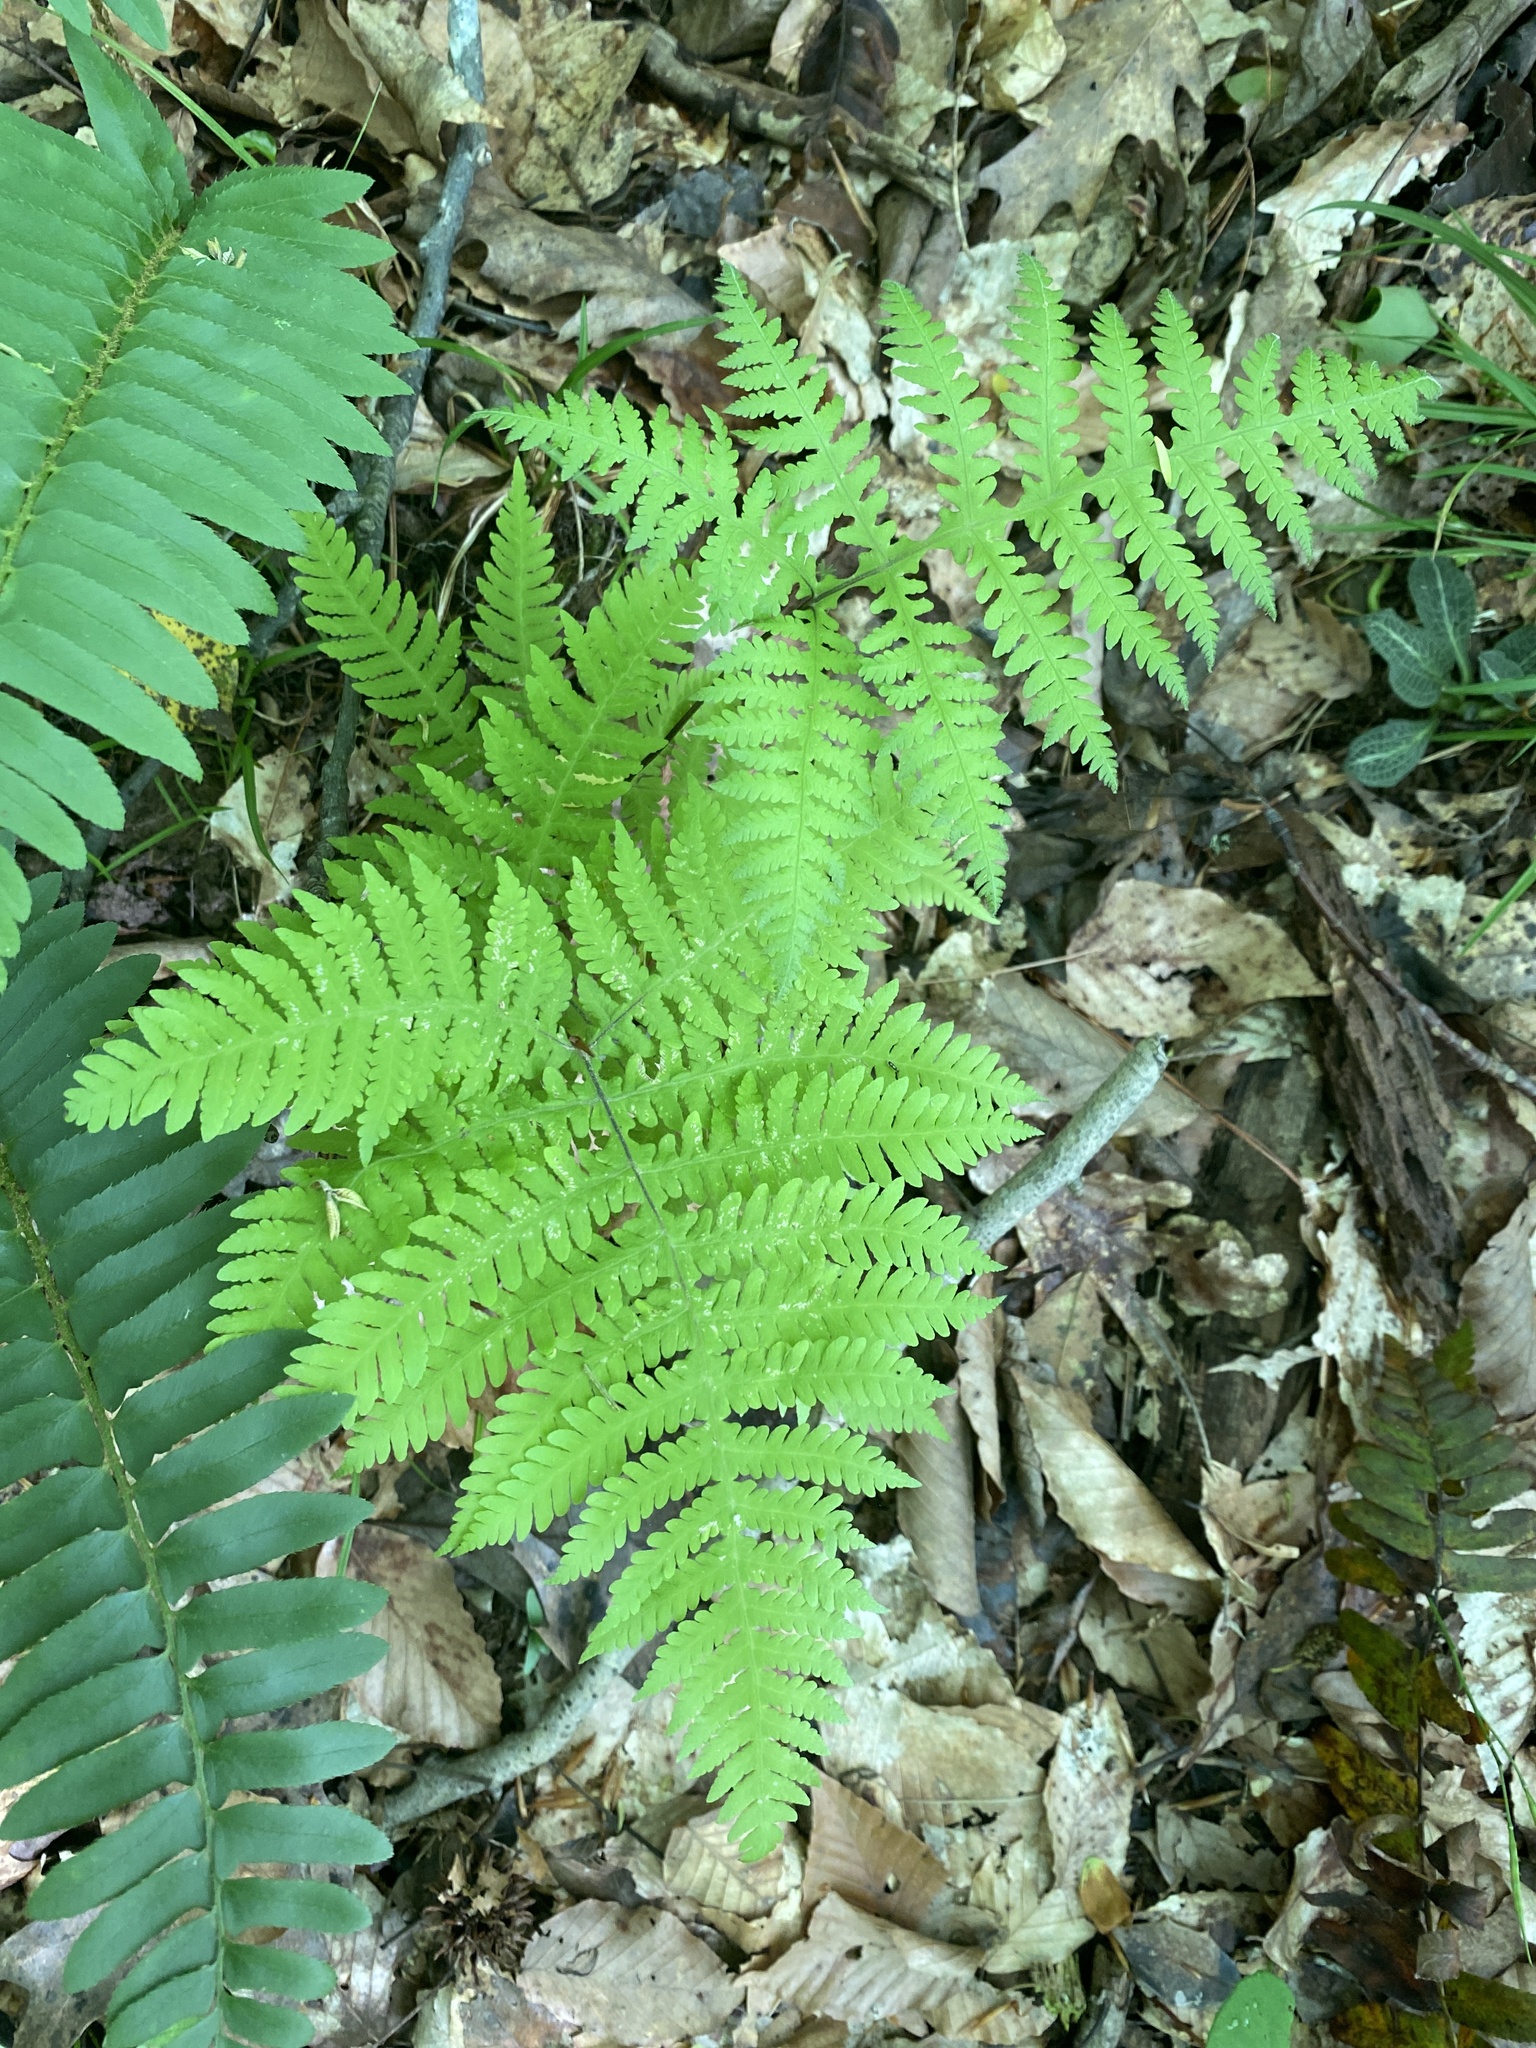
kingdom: Plantae
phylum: Tracheophyta
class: Polypodiopsida
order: Polypodiales
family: Thelypteridaceae
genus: Phegopteris
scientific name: Phegopteris hexagonoptera
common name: Broad beech fern
